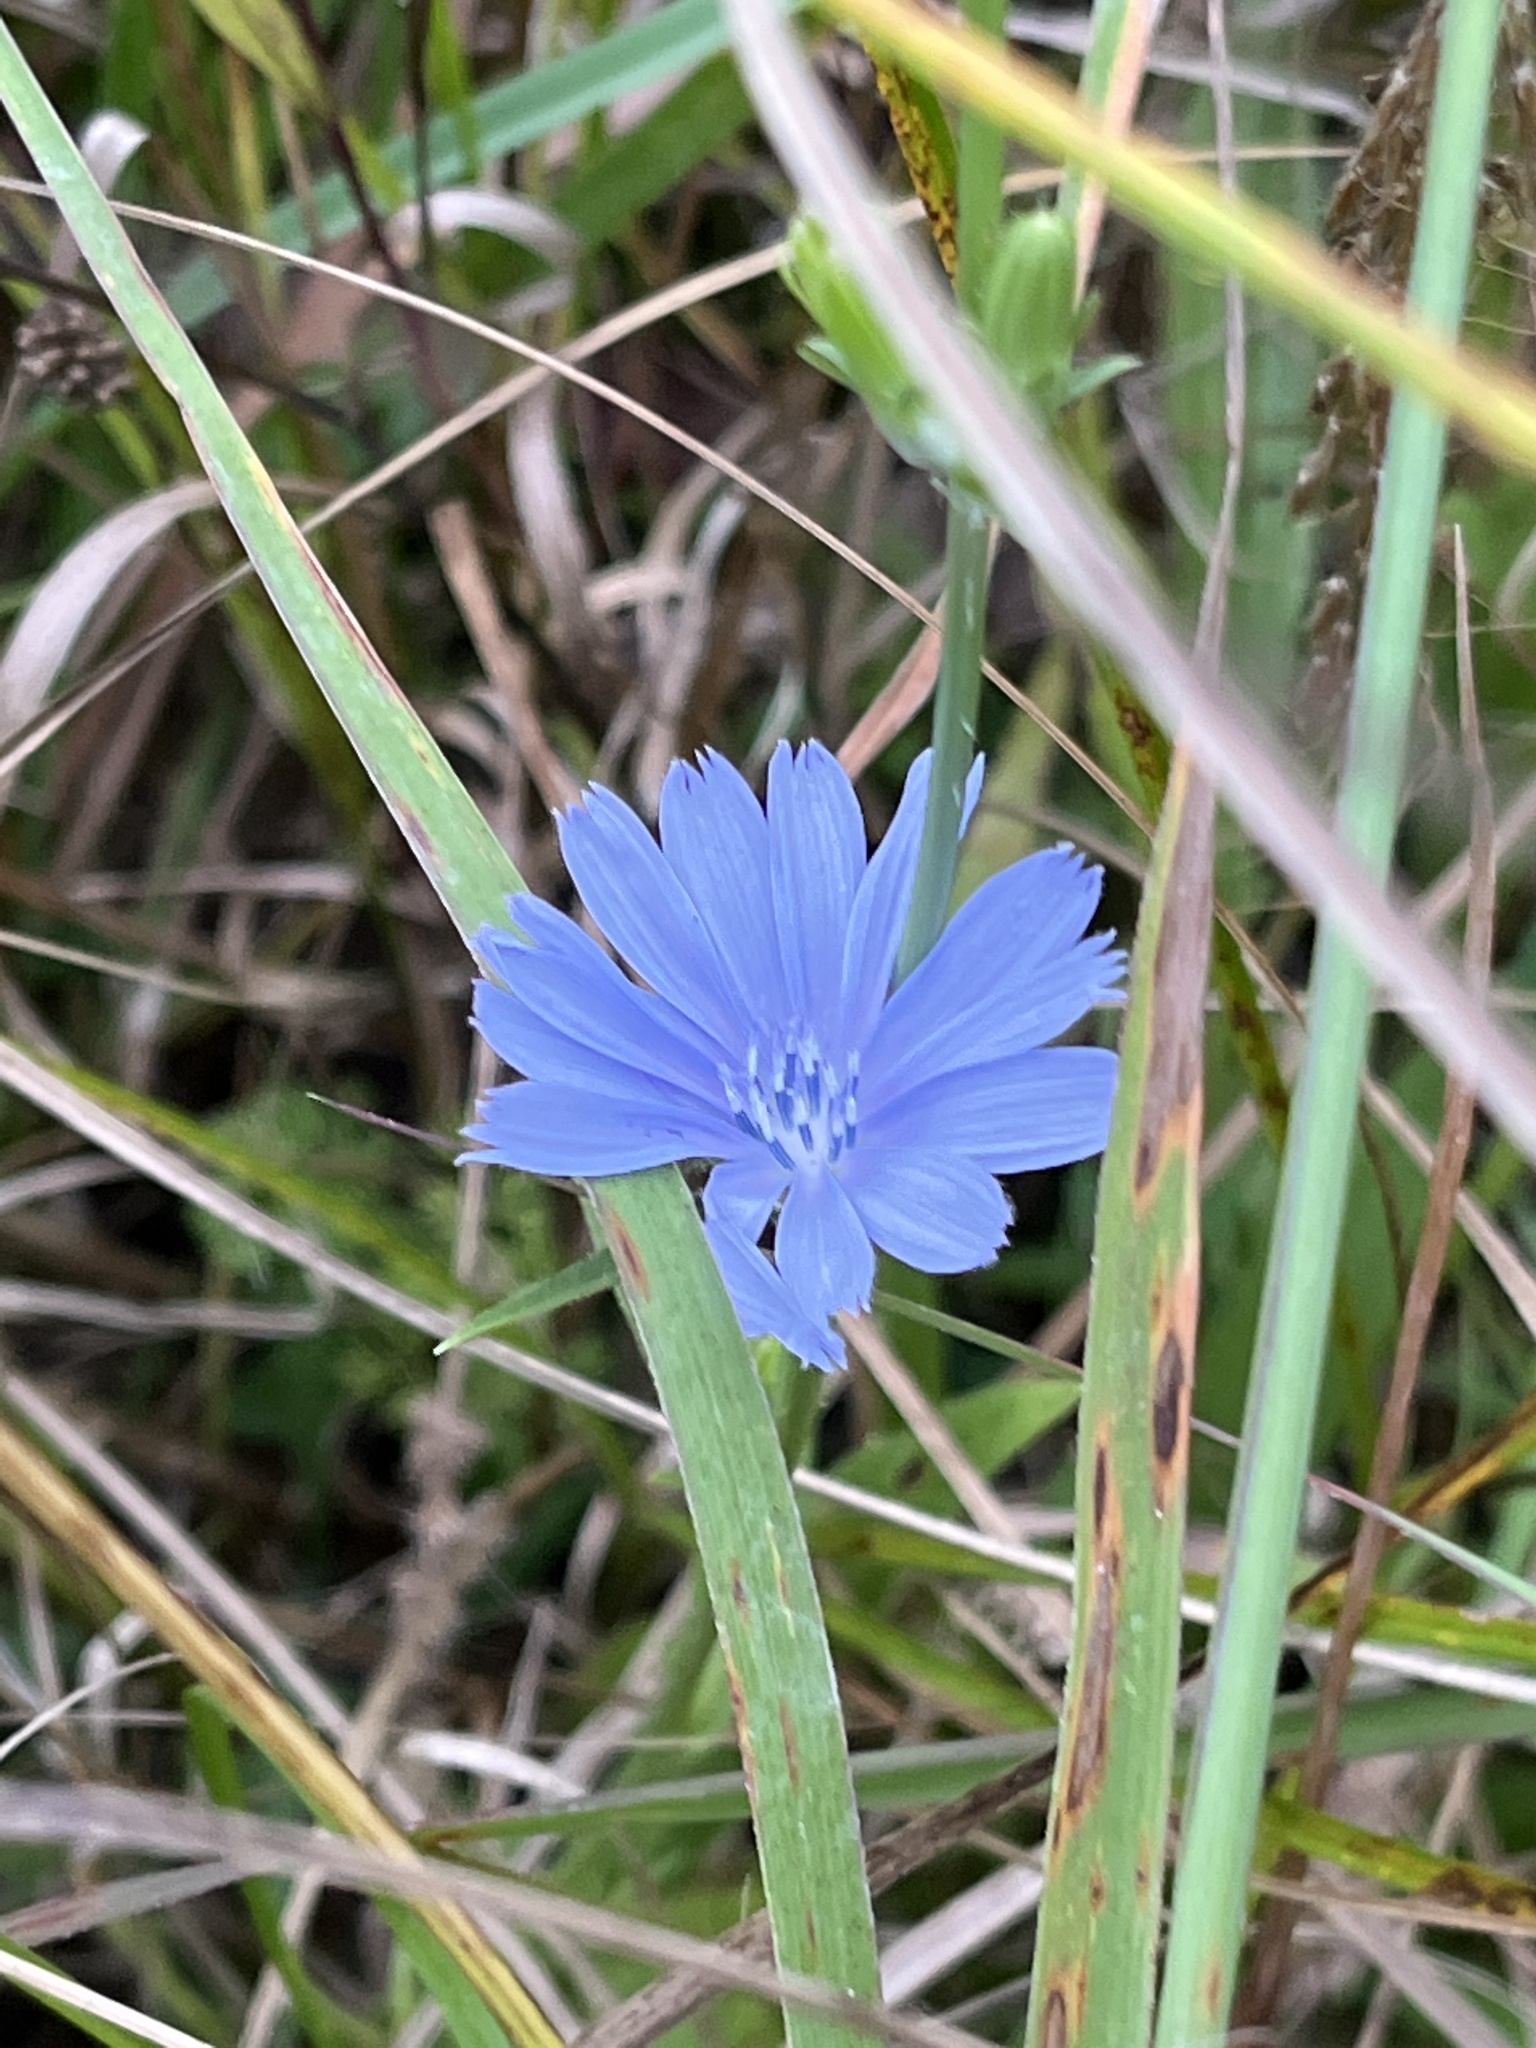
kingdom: Plantae
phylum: Tracheophyta
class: Magnoliopsida
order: Asterales
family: Asteraceae
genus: Cichorium
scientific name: Cichorium intybus
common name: Chicory
